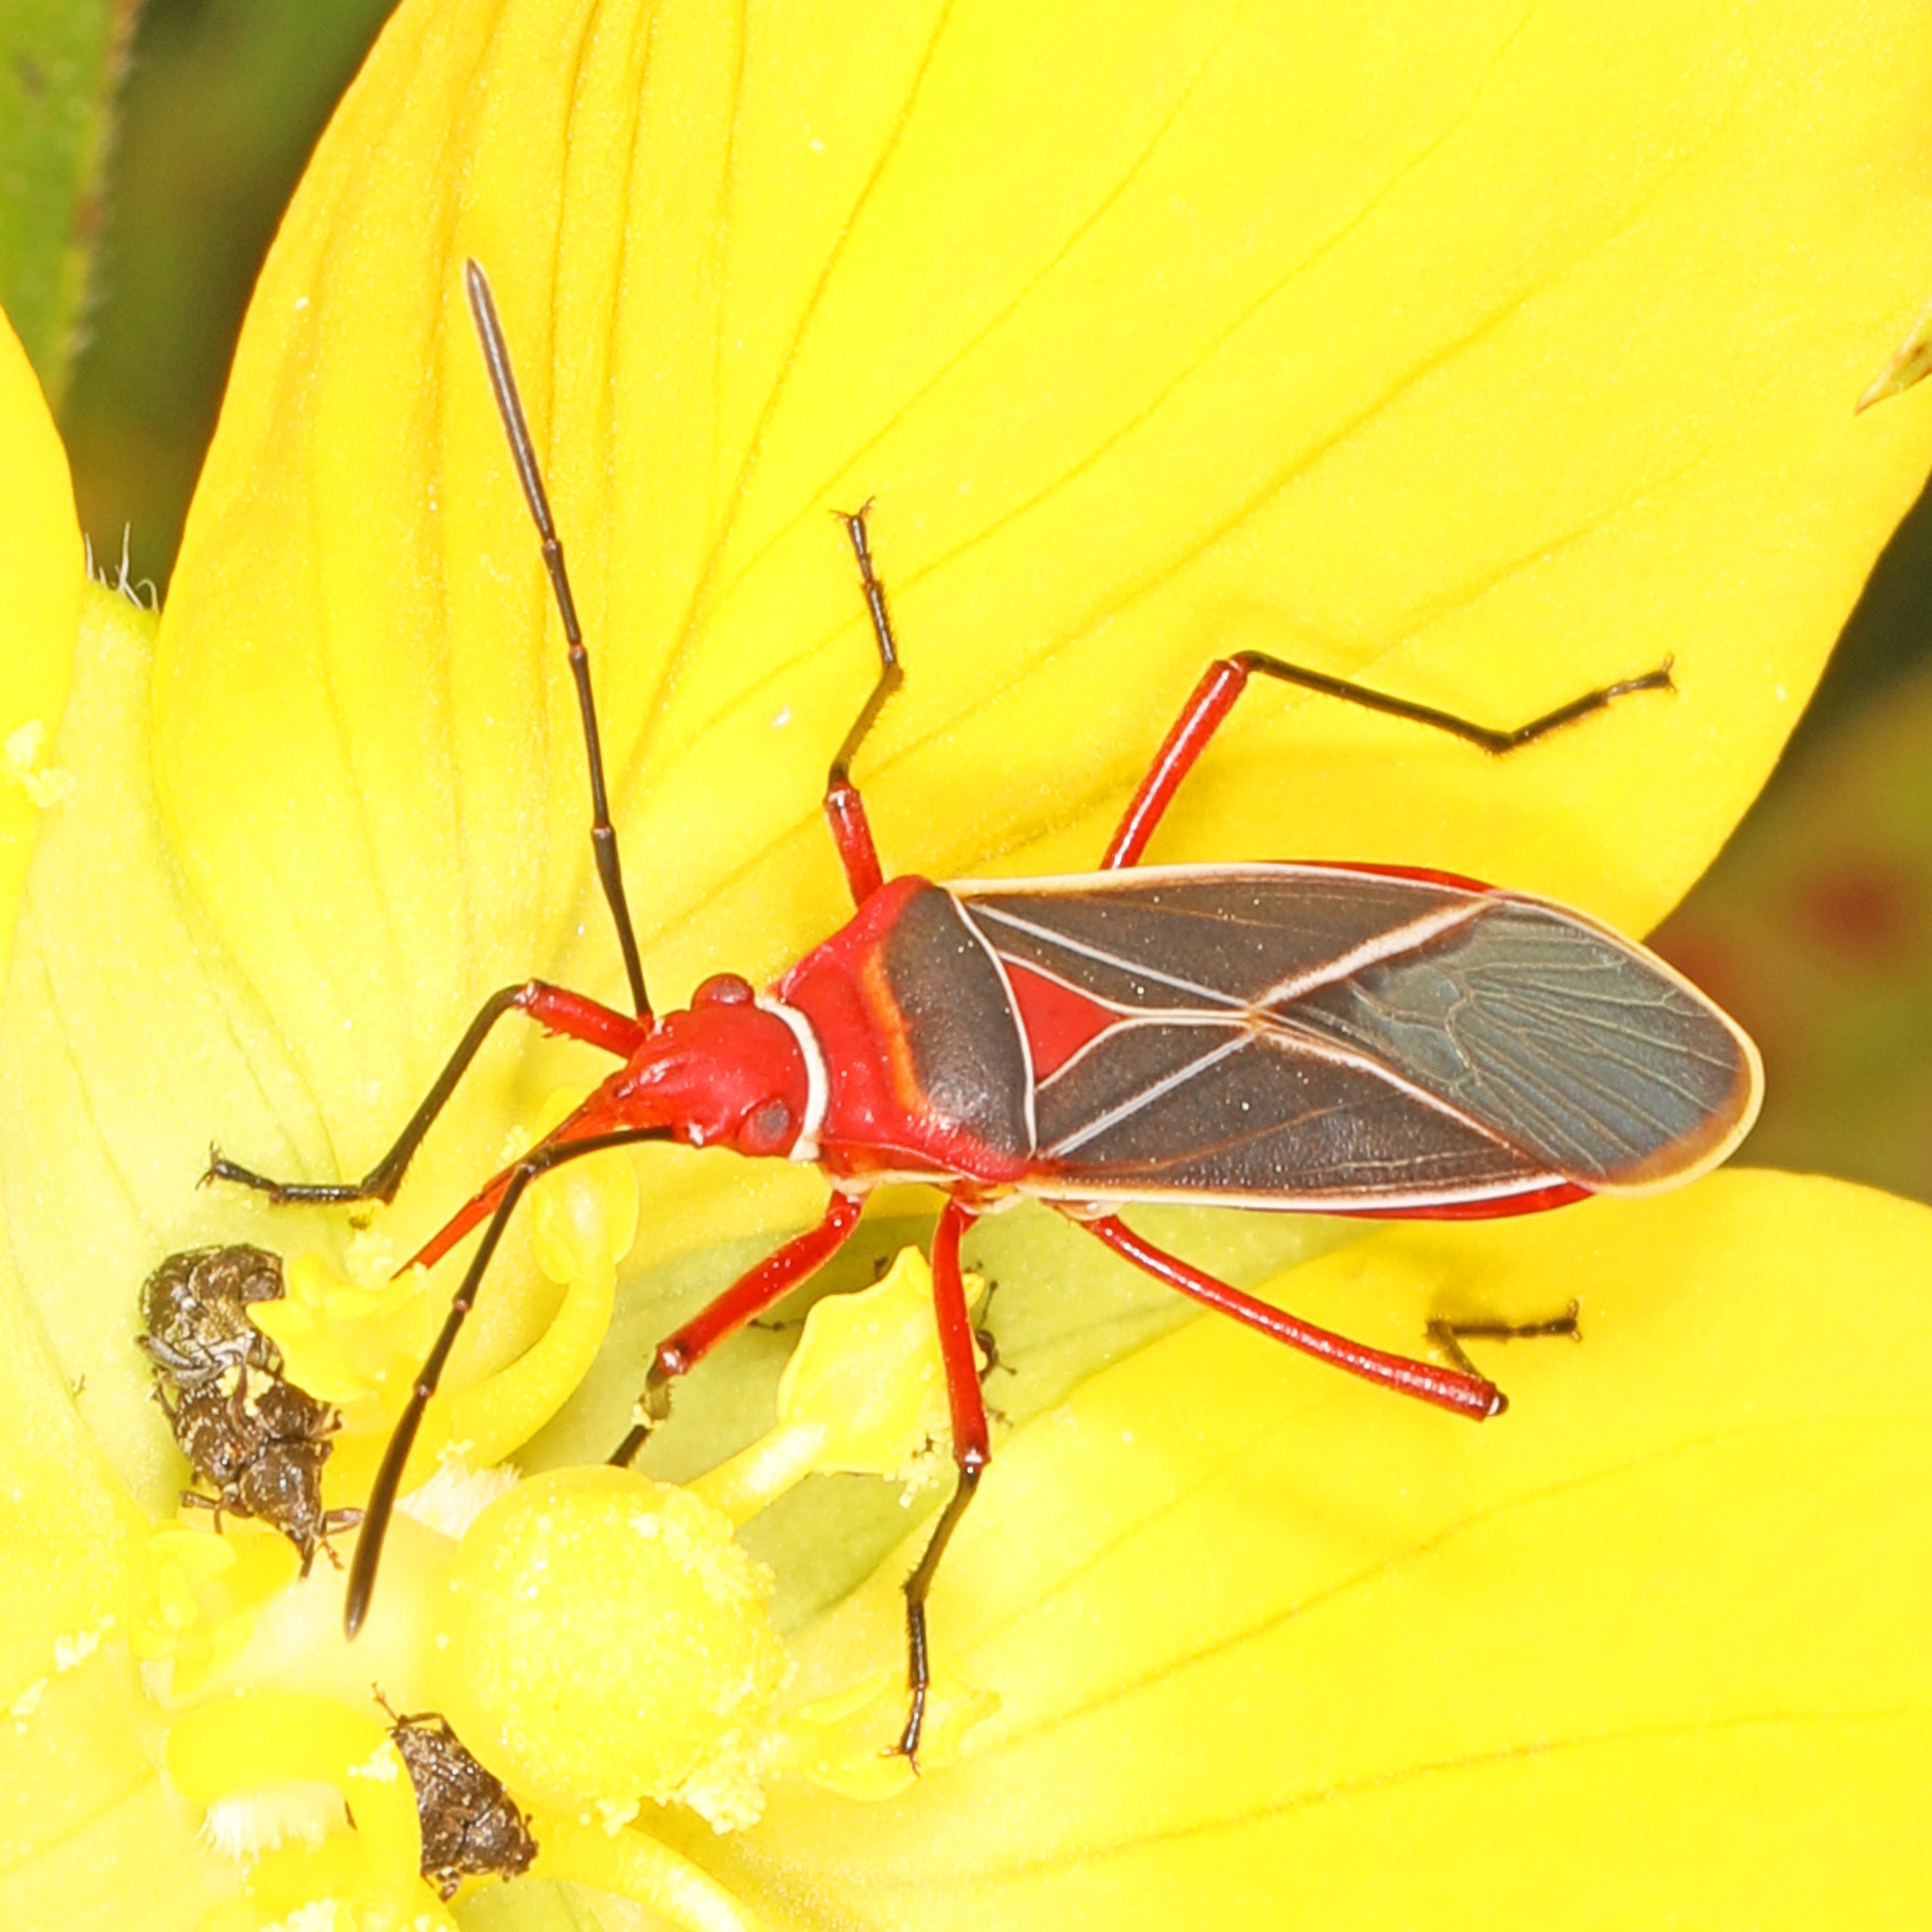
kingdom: Animalia
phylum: Arthropoda
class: Insecta
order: Hemiptera
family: Pyrrhocoridae
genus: Dysdercus
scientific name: Dysdercus suturellus
